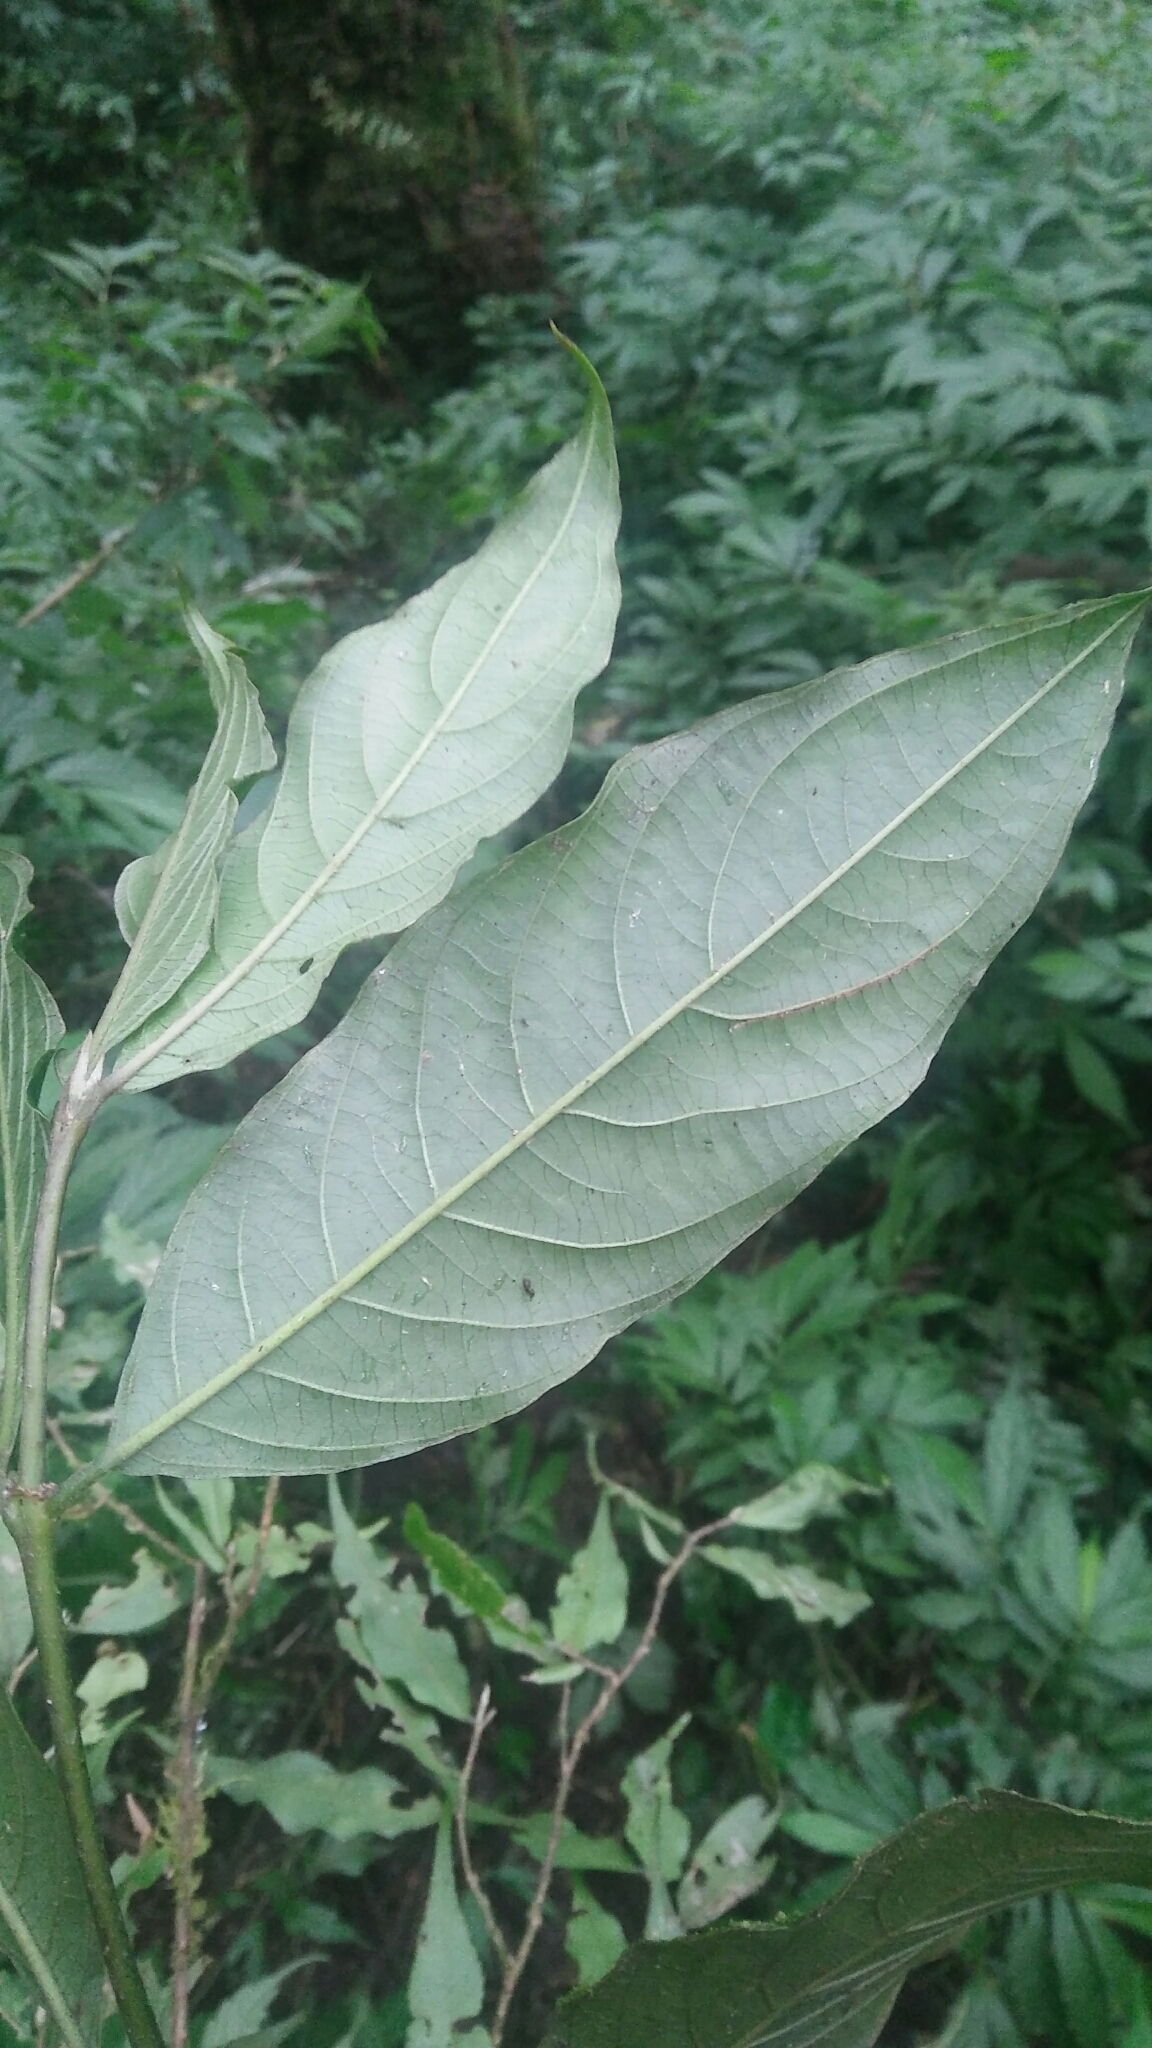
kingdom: Plantae
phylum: Tracheophyta
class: Magnoliopsida
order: Gentianales
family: Rubiaceae
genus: Lasianthus
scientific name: Lasianthus fordii
